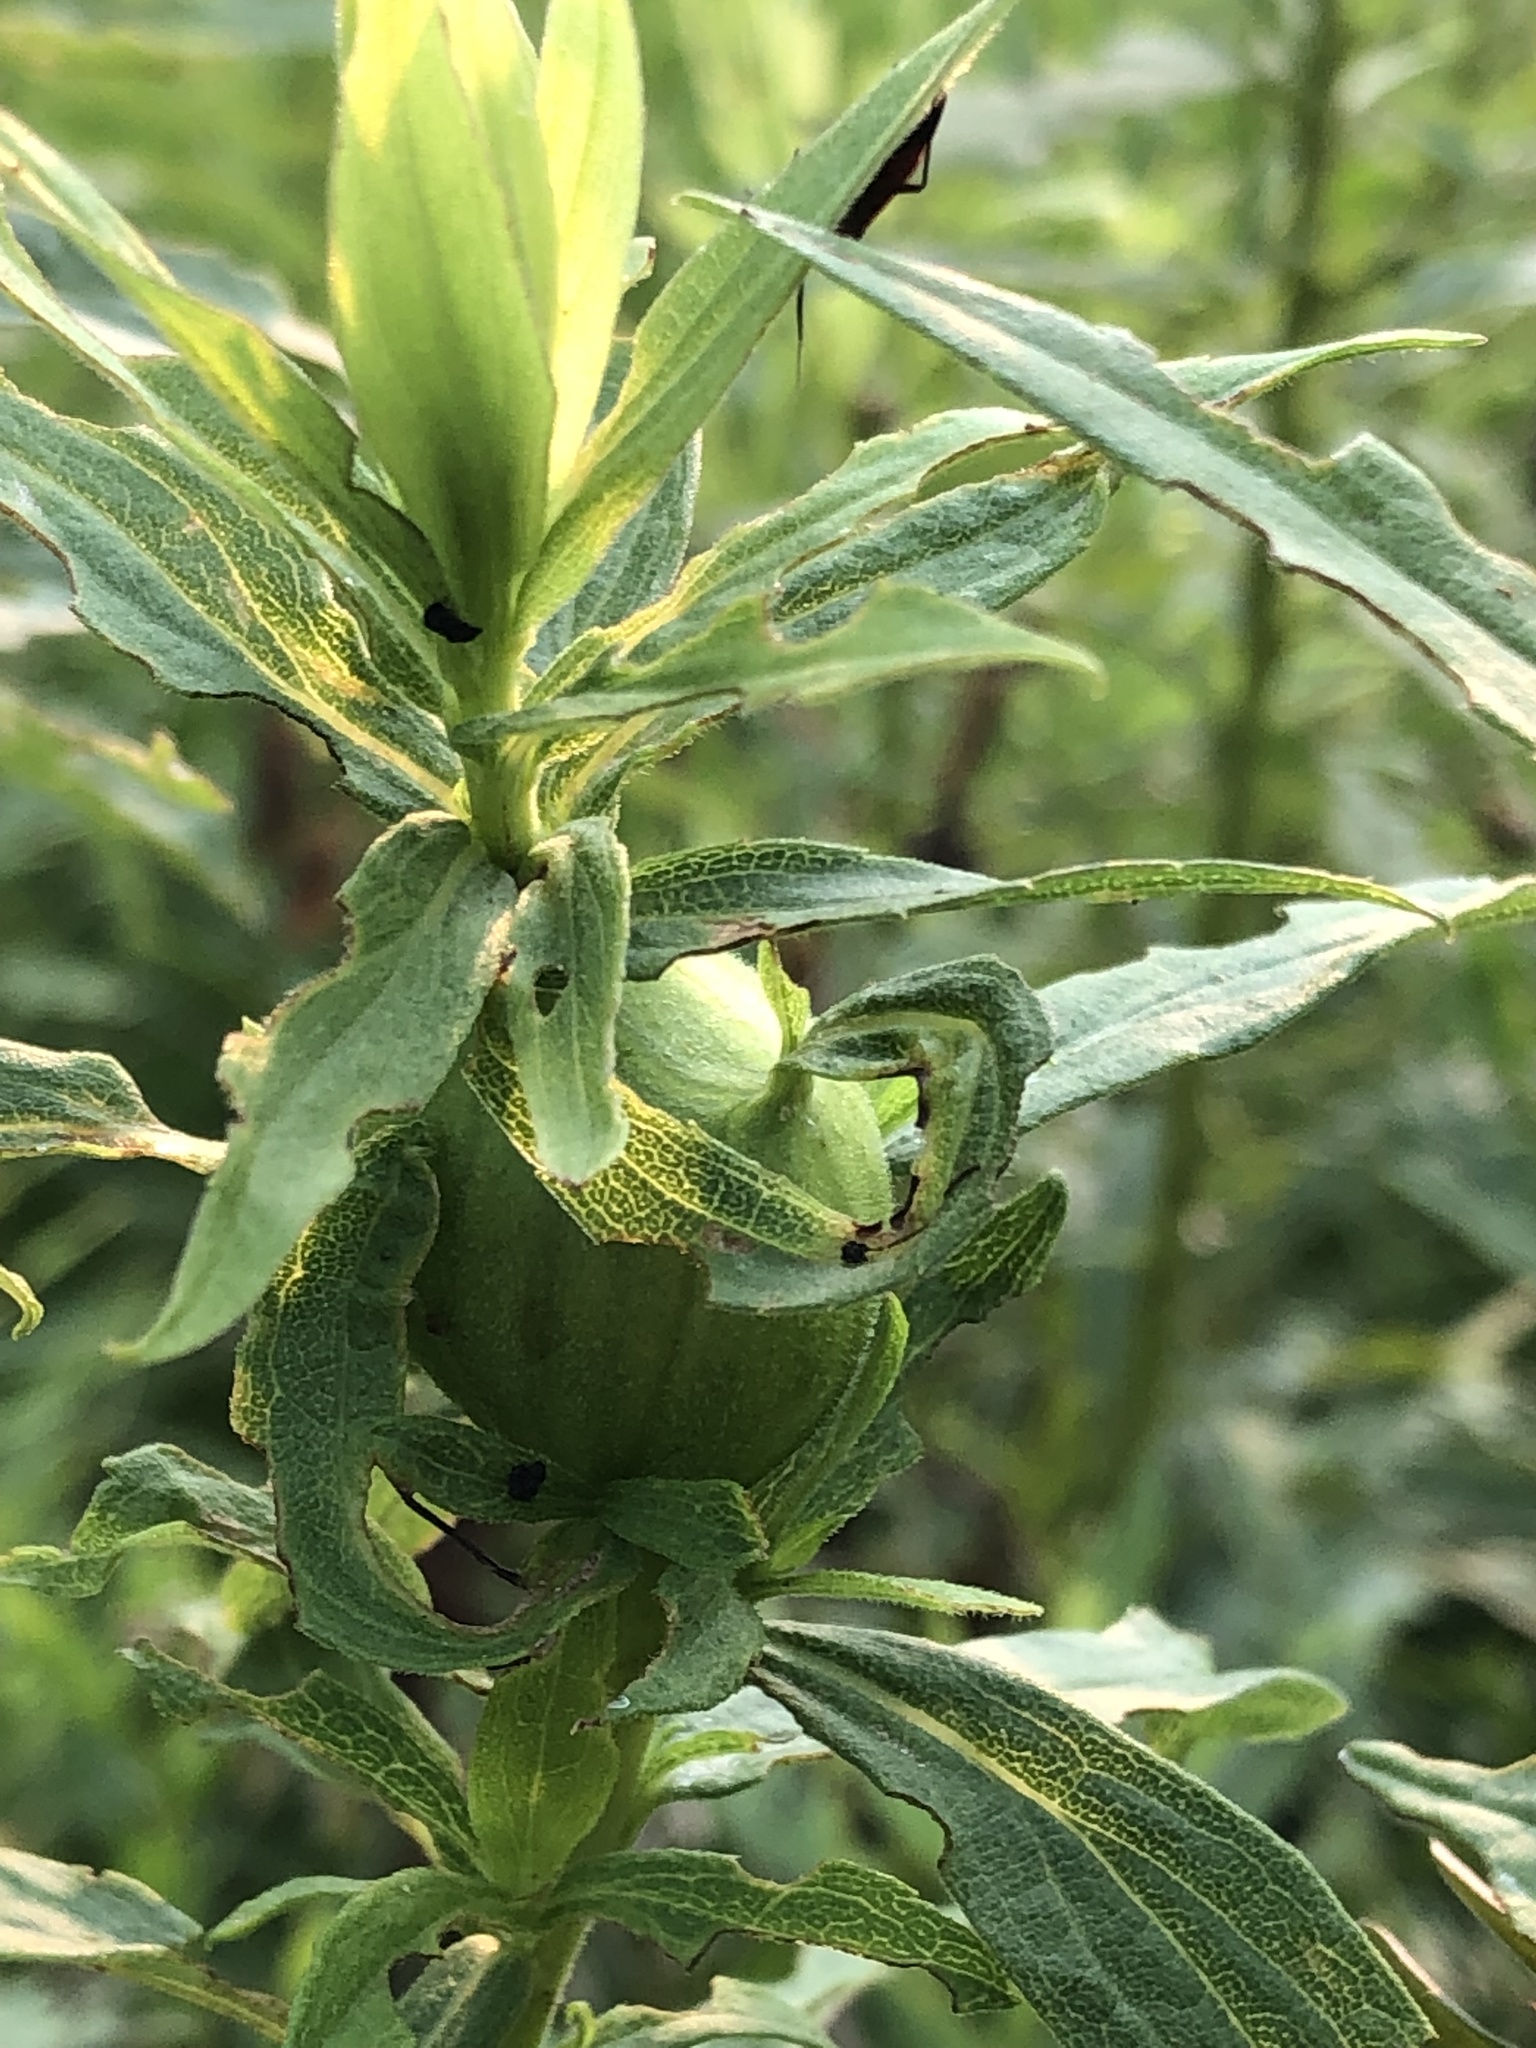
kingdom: Animalia
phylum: Arthropoda
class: Insecta
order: Diptera
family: Tephritidae
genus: Eurosta
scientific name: Eurosta solidaginis
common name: Goldenrod gall fly
